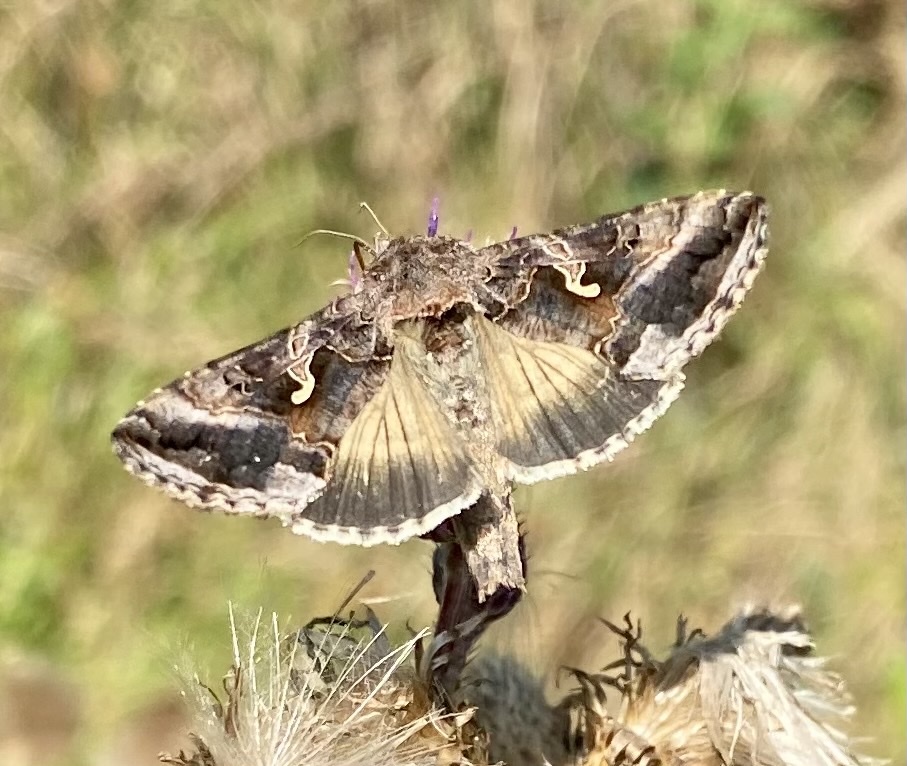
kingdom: Animalia
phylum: Arthropoda
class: Insecta
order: Lepidoptera
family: Noctuidae
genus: Autographa
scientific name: Autographa gamma
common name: Silver y
